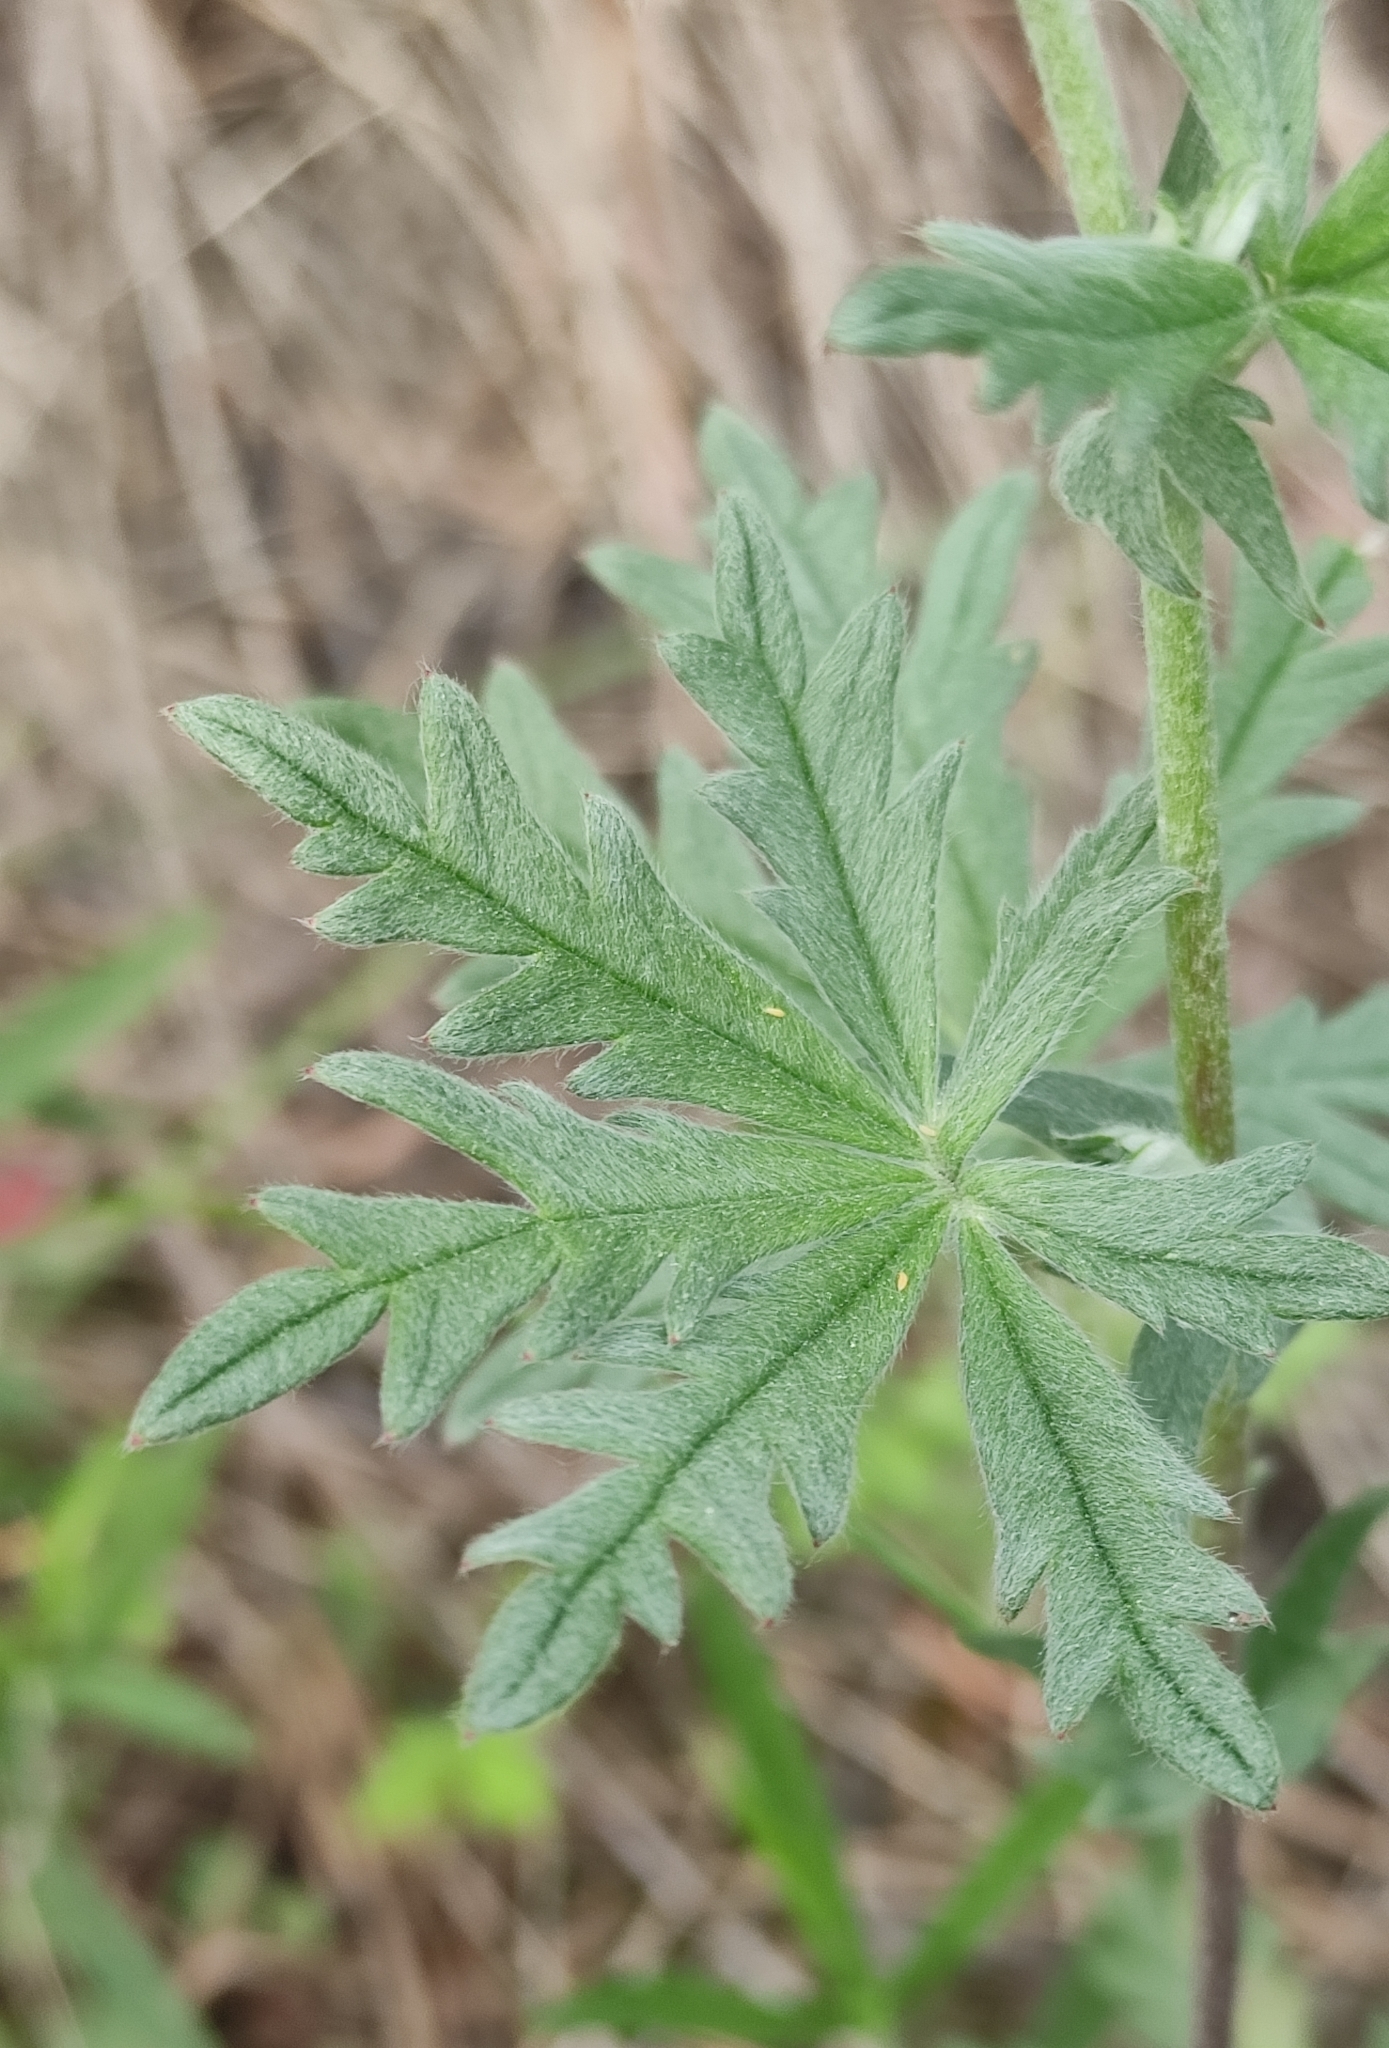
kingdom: Plantae
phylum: Tracheophyta
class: Magnoliopsida
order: Rosales
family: Rosaceae
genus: Potentilla
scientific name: Potentilla argentea
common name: Hoary cinquefoil
